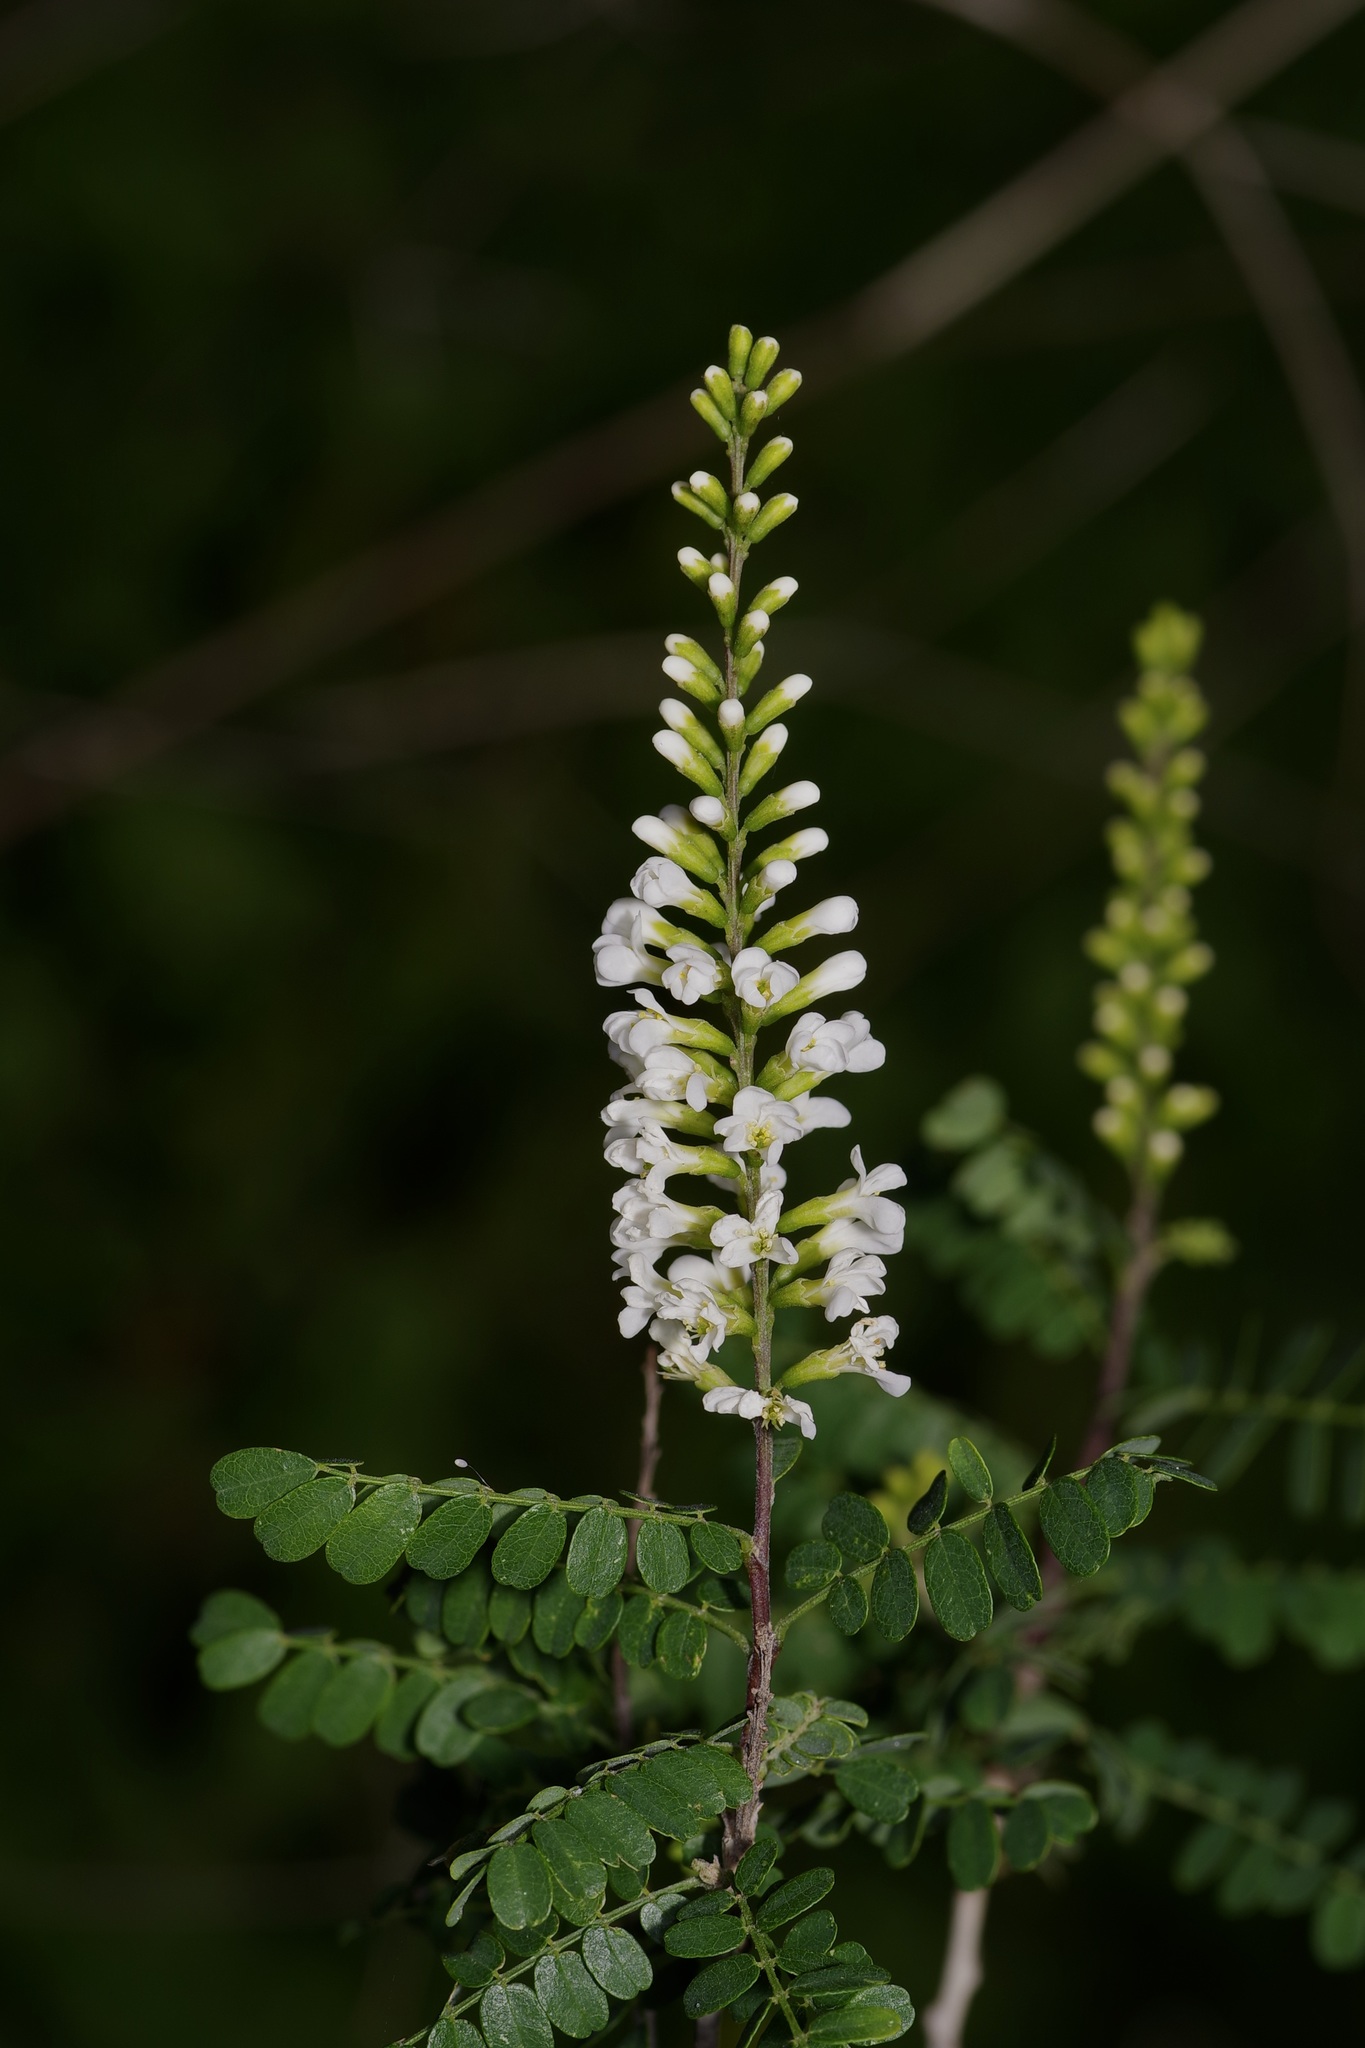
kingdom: Plantae
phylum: Tracheophyta
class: Magnoliopsida
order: Fabales
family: Fabaceae
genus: Eysenhardtia
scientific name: Eysenhardtia texana
